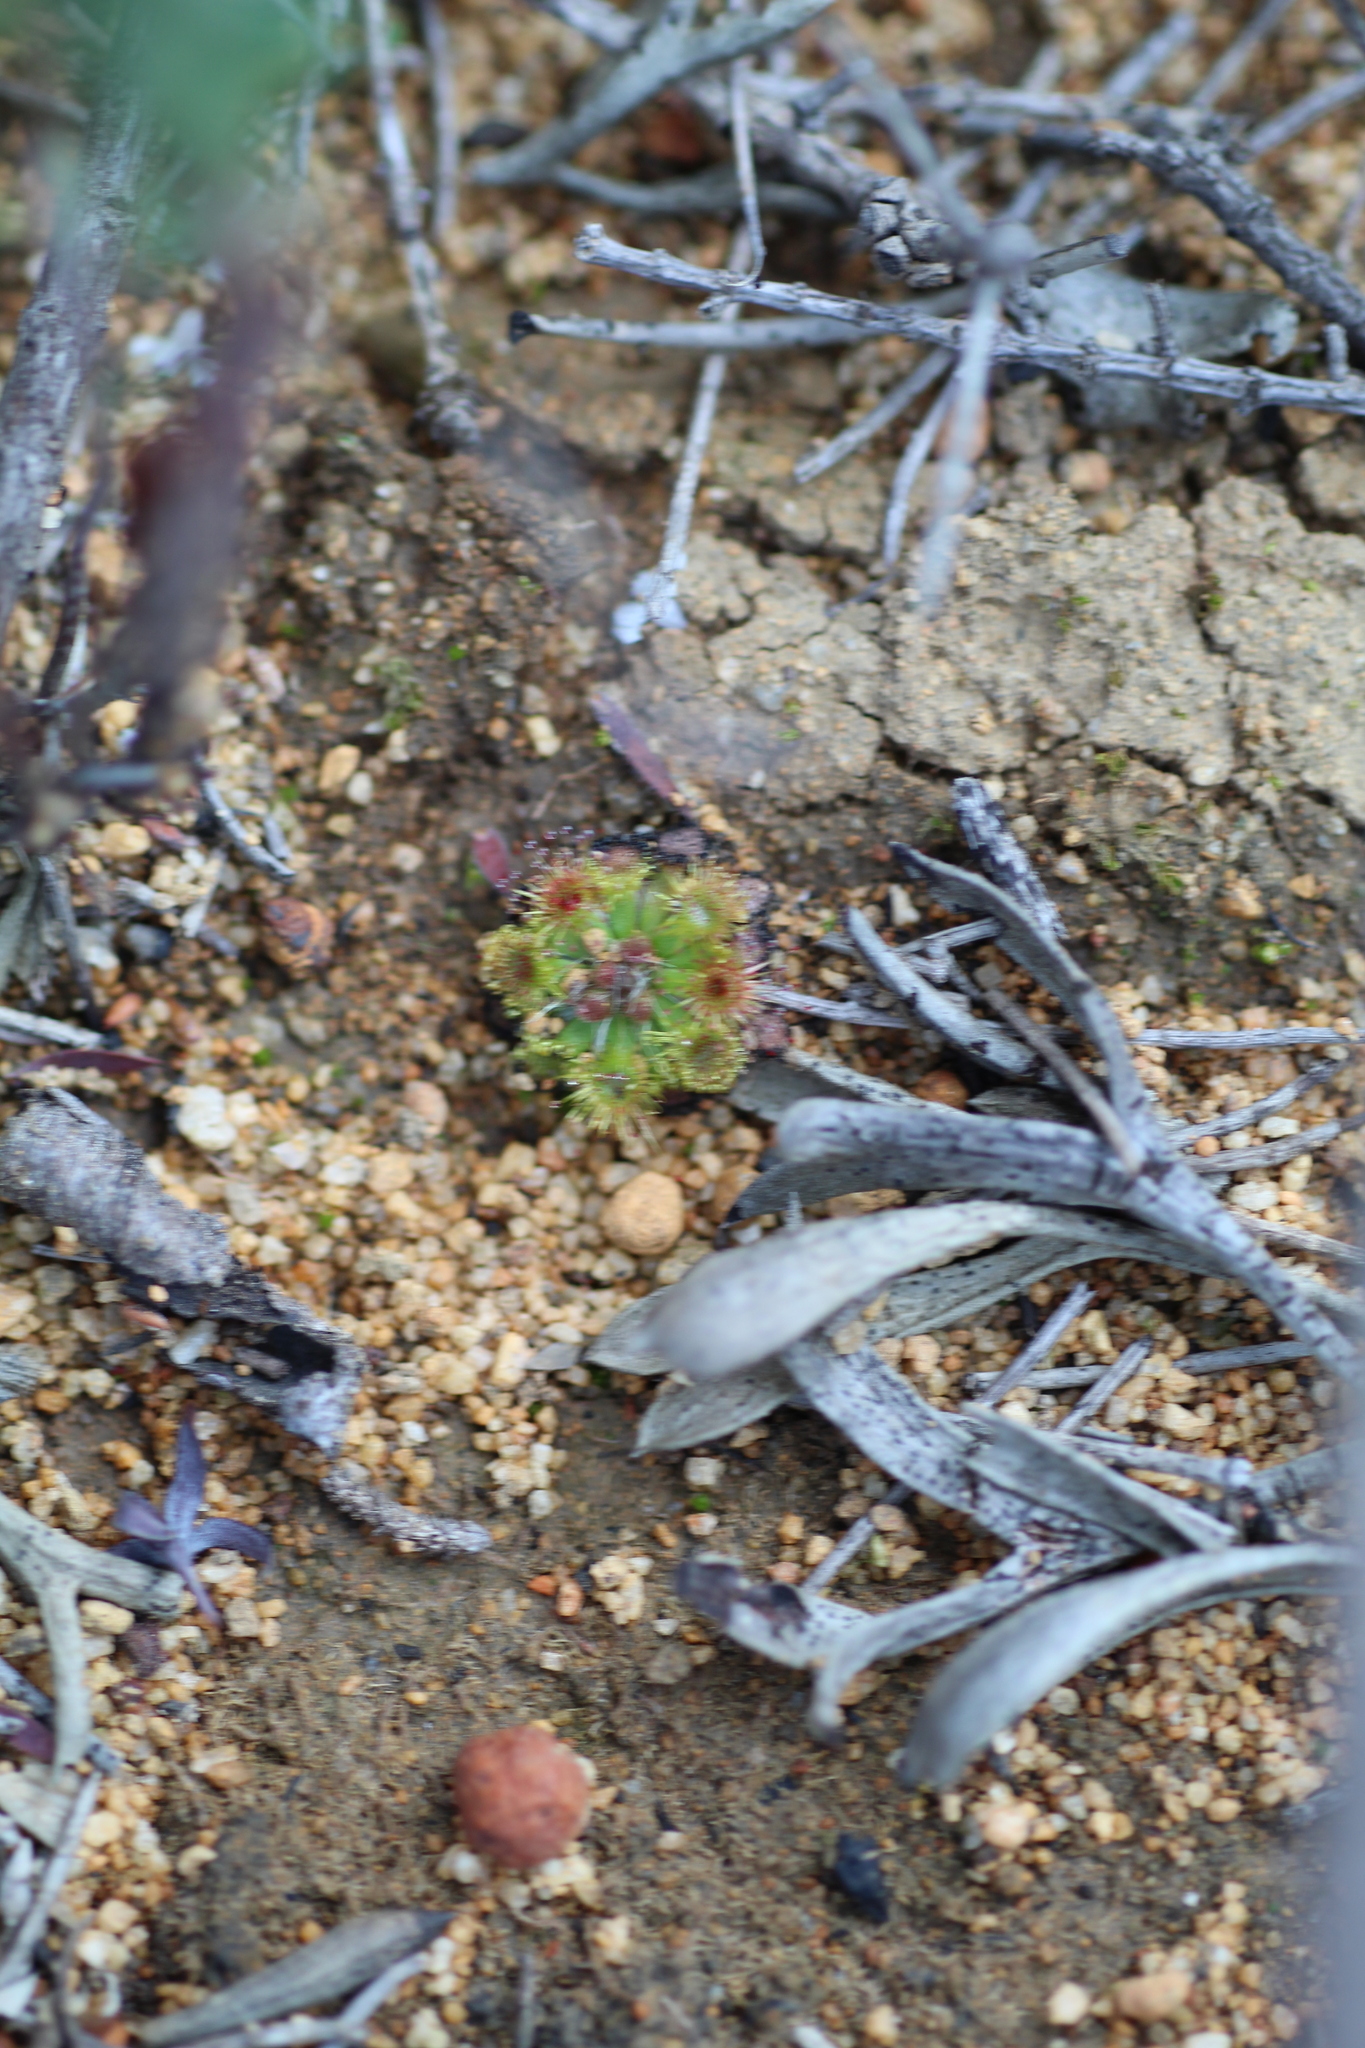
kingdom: Plantae
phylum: Tracheophyta
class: Magnoliopsida
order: Caryophyllales
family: Droseraceae
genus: Drosera
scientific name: Drosera platystigma
